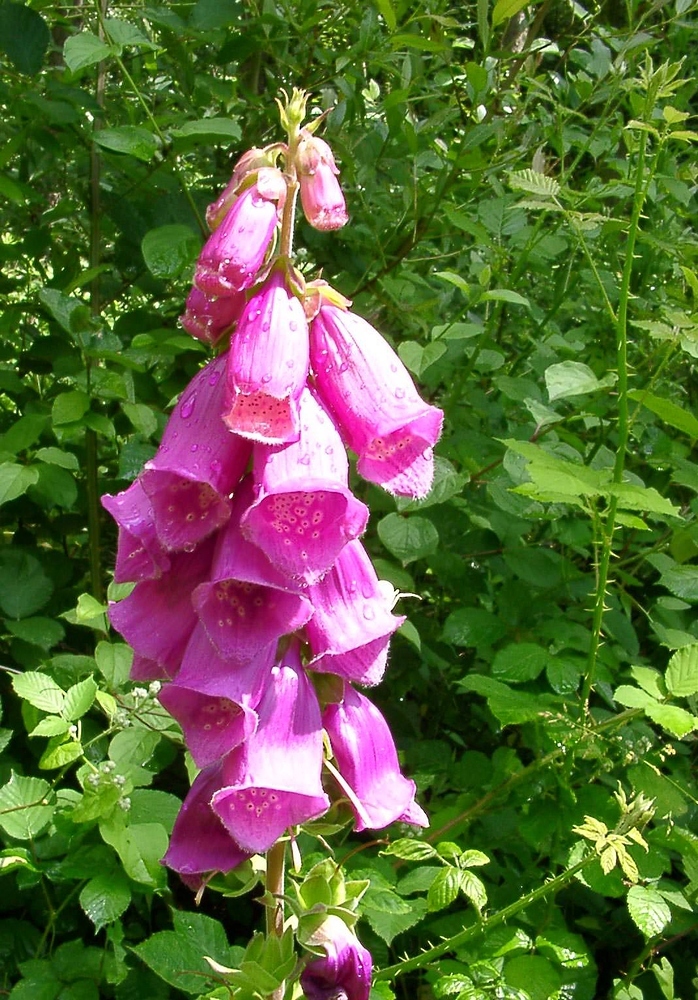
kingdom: Plantae
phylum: Tracheophyta
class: Magnoliopsida
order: Lamiales
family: Plantaginaceae
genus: Digitalis
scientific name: Digitalis purpurea
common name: Foxglove
